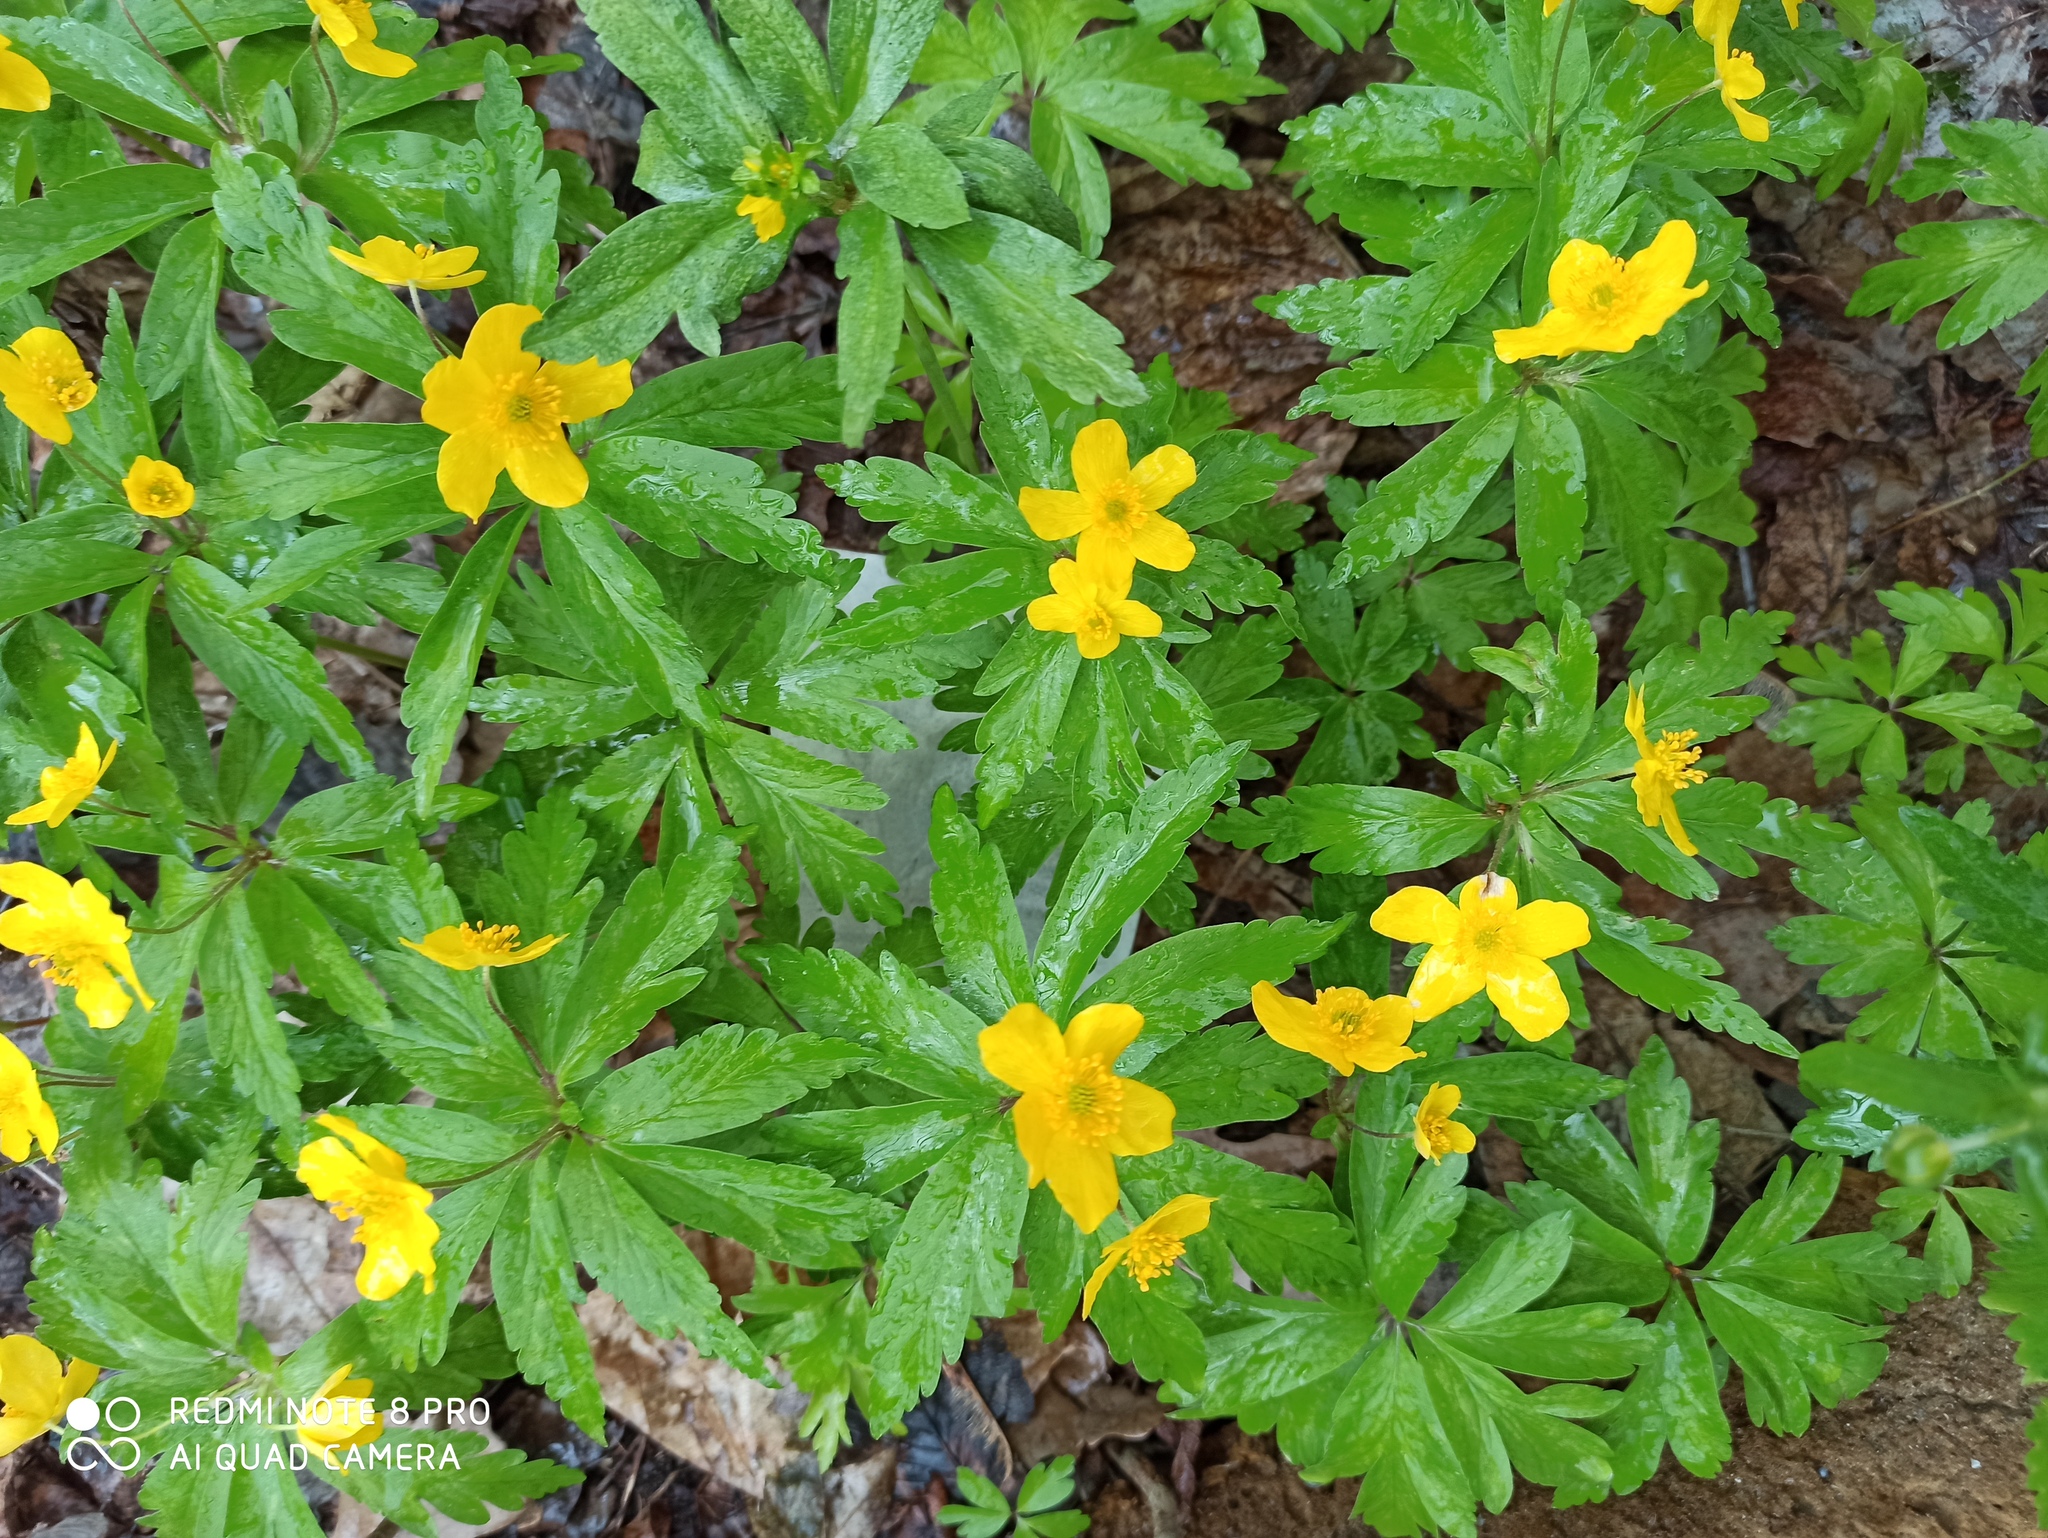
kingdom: Plantae
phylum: Tracheophyta
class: Magnoliopsida
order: Ranunculales
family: Ranunculaceae
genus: Anemone
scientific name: Anemone ranunculoides
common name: Yellow anemone
